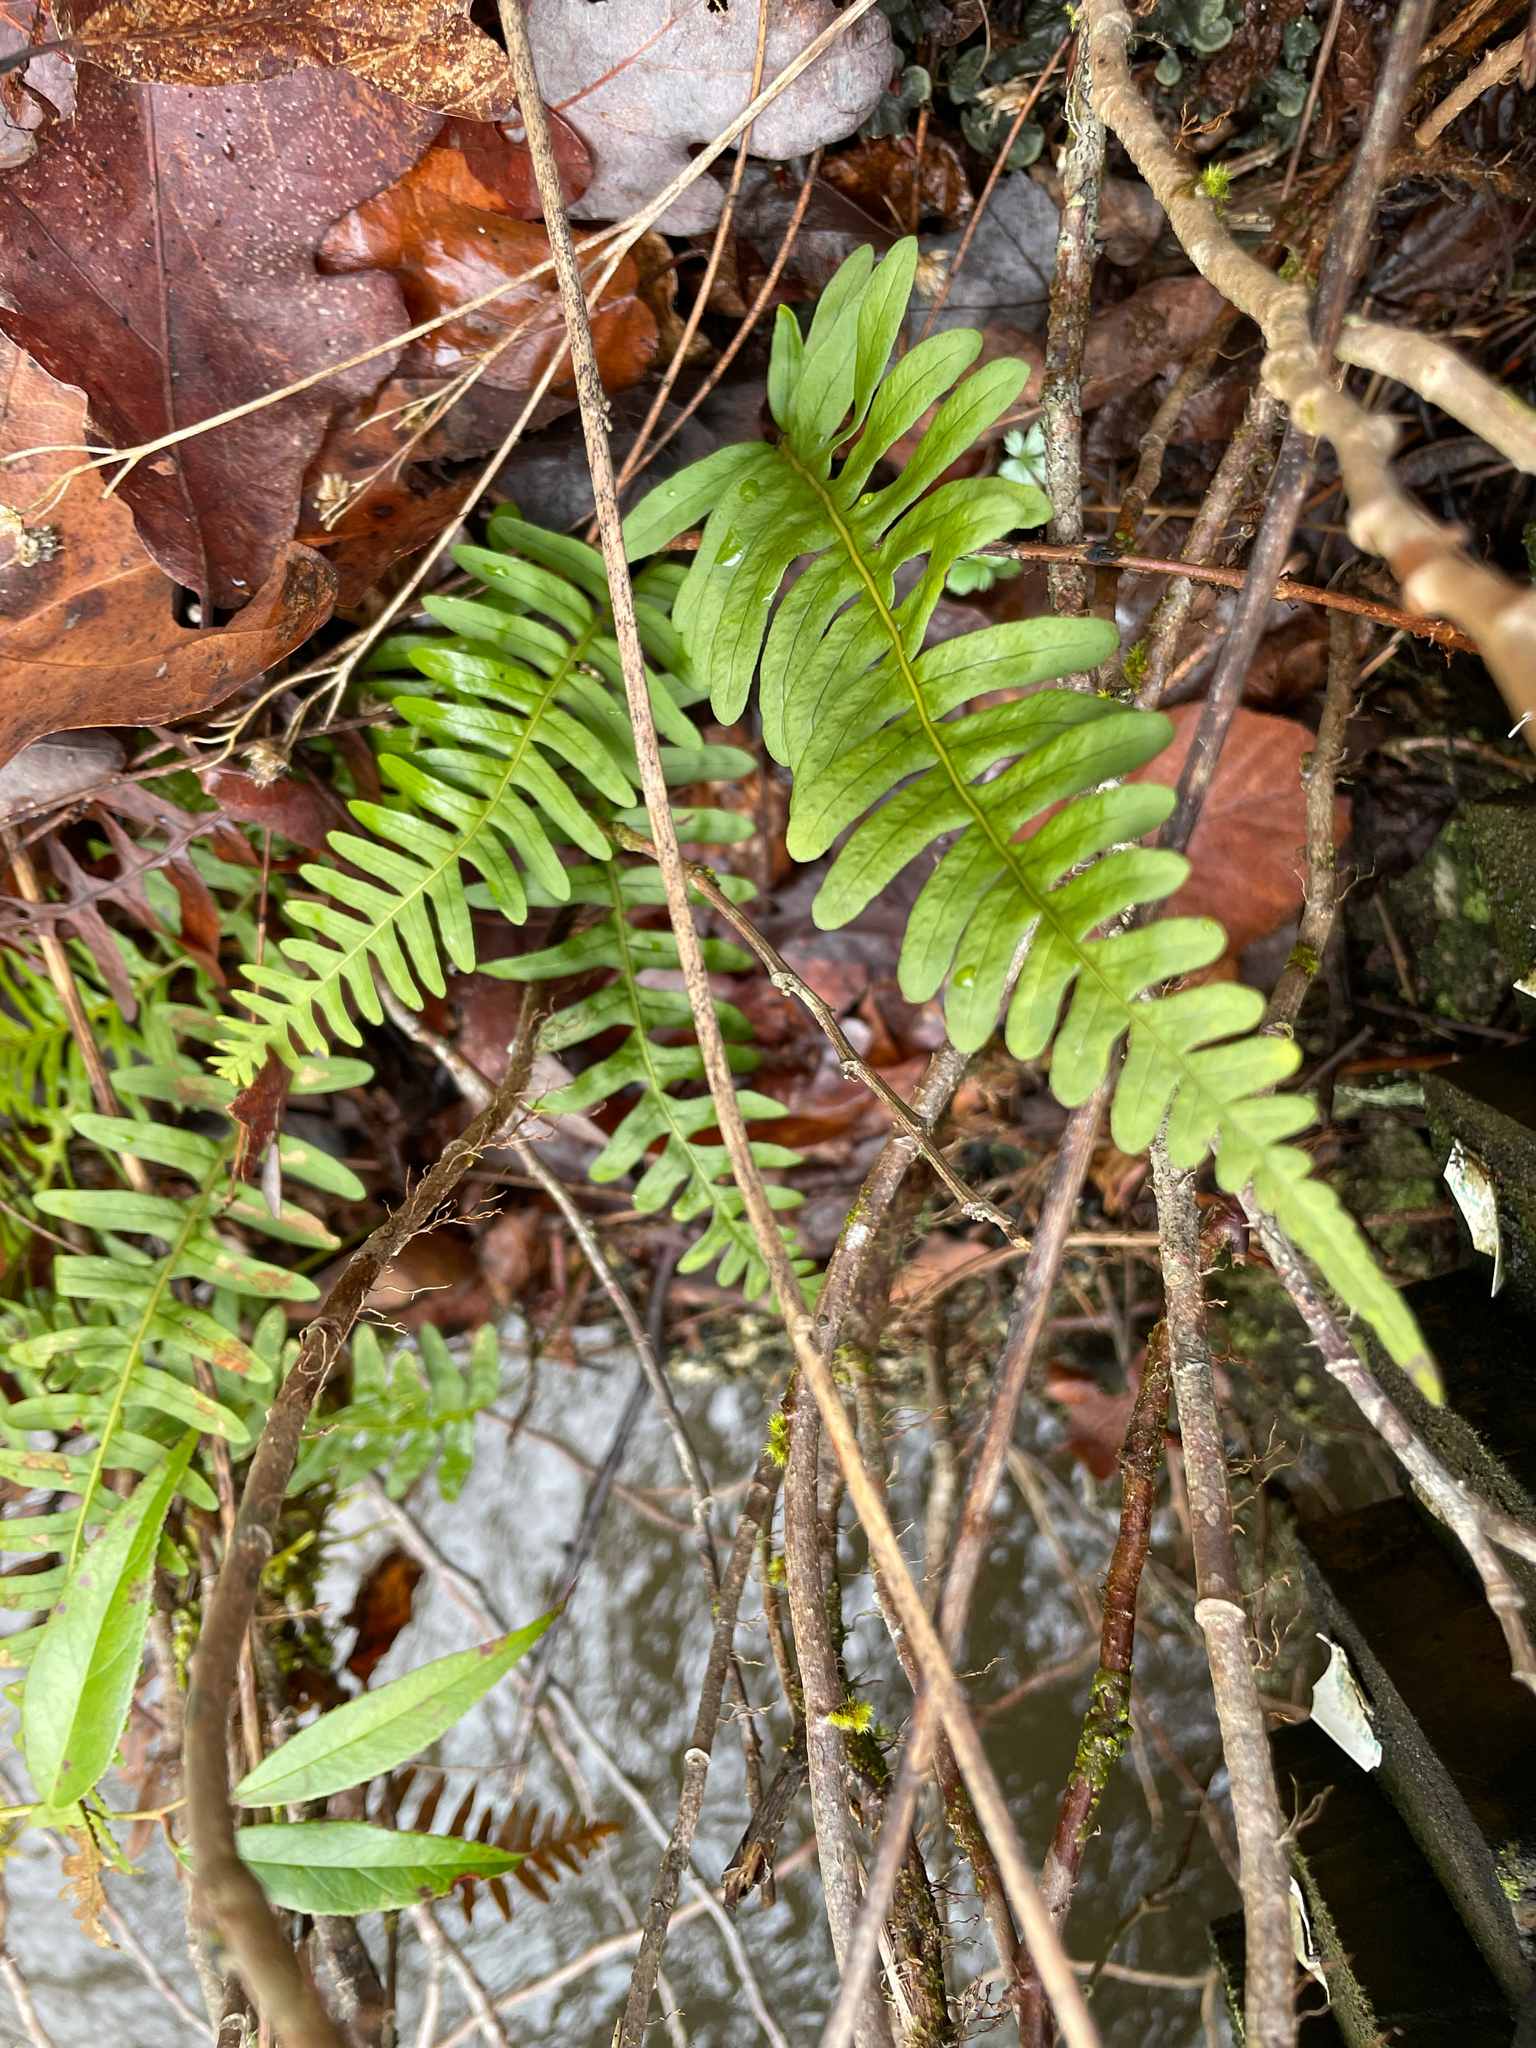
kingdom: Plantae
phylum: Tracheophyta
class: Polypodiopsida
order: Polypodiales
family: Polypodiaceae
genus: Polypodium
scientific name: Polypodium appalachianum
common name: Appalachian polypody
